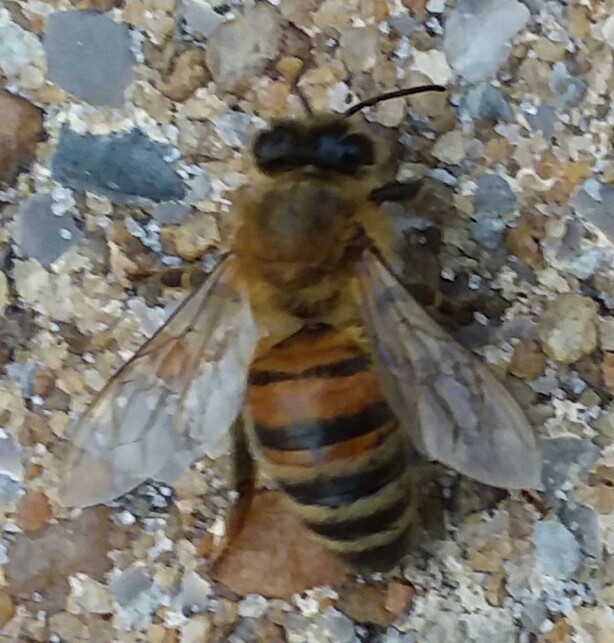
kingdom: Animalia
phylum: Arthropoda
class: Insecta
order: Hymenoptera
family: Apidae
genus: Apis
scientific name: Apis mellifera
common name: Honey bee
